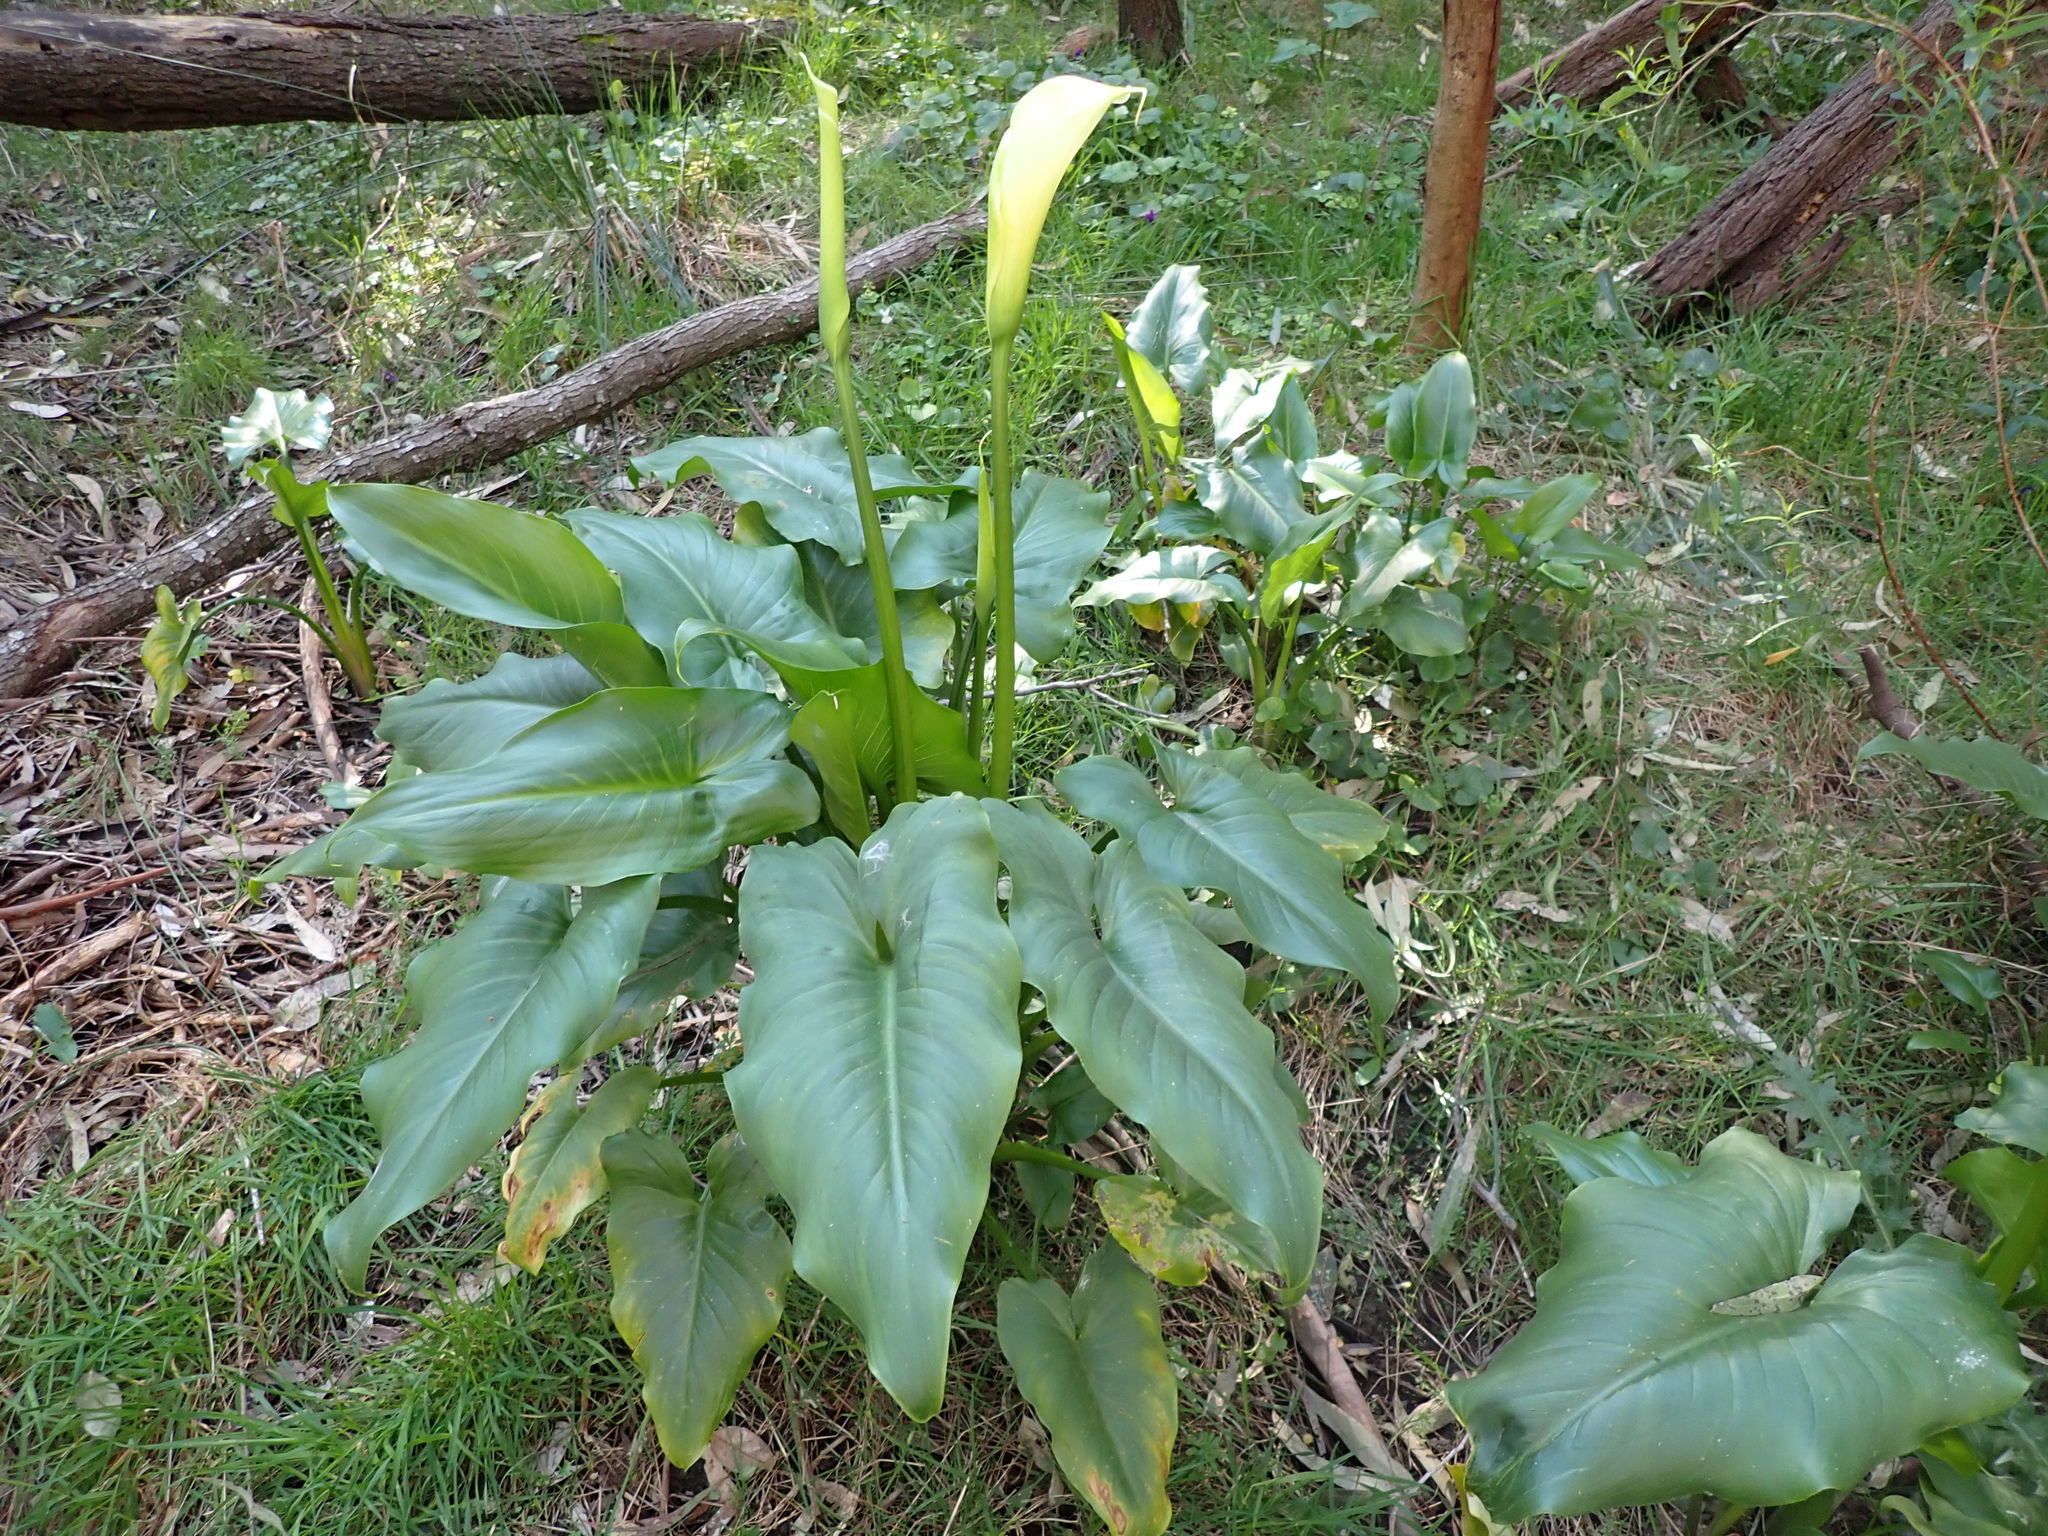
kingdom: Plantae
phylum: Tracheophyta
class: Liliopsida
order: Alismatales
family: Araceae
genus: Zantedeschia
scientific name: Zantedeschia aethiopica
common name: Altar-lily
